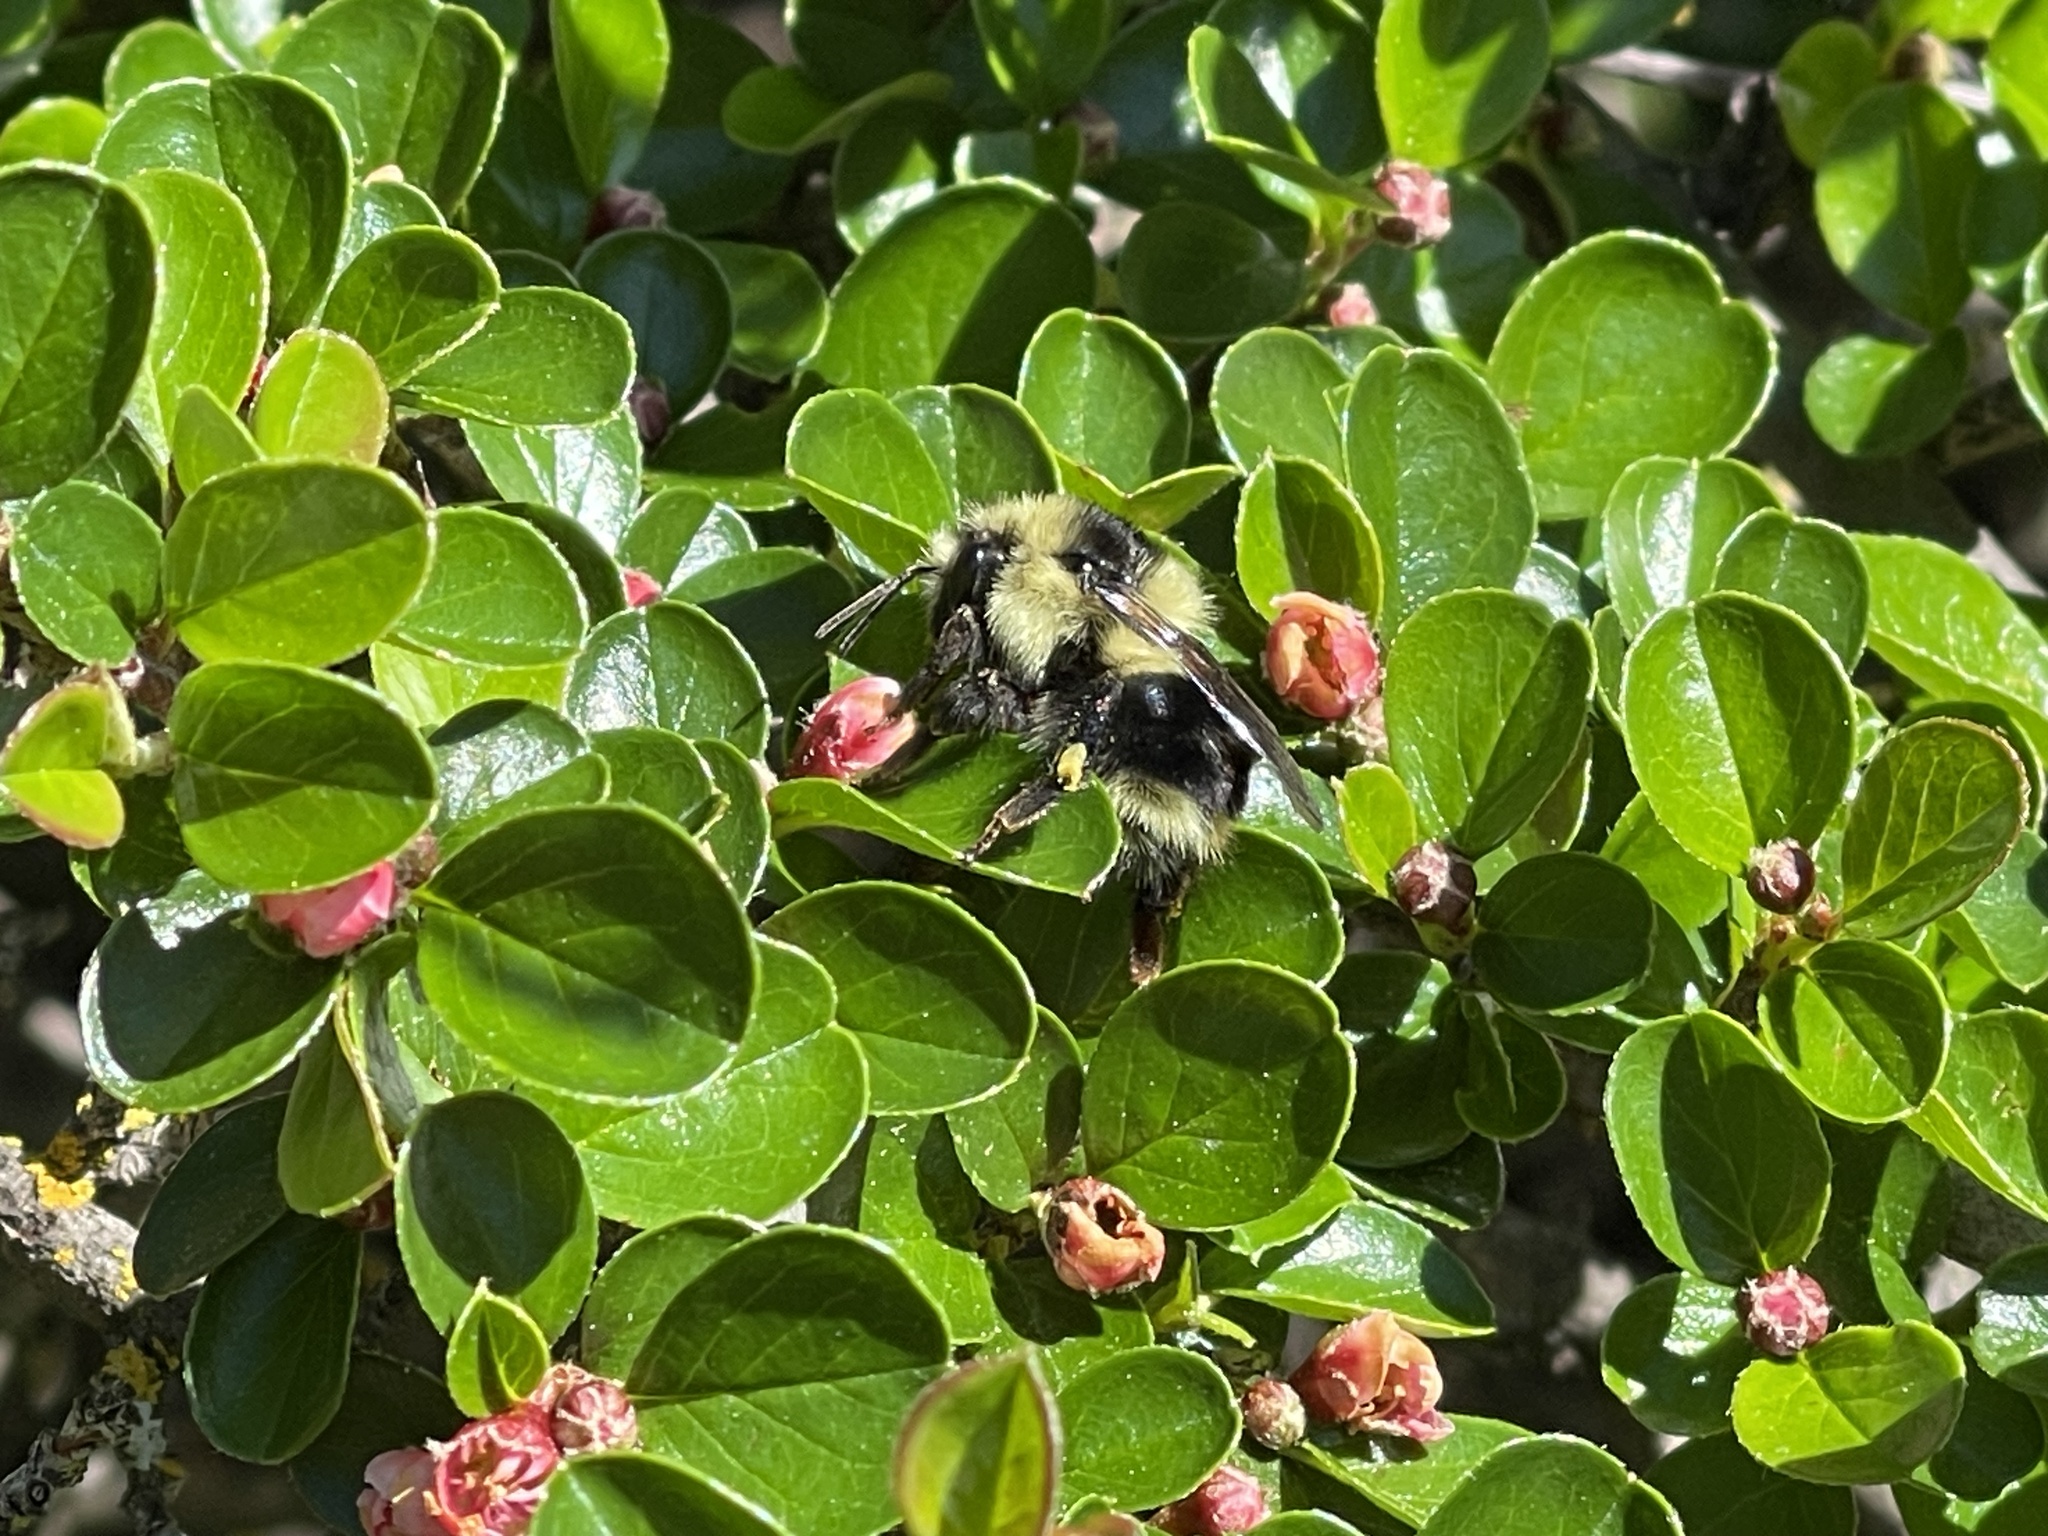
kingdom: Animalia
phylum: Arthropoda
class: Insecta
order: Hymenoptera
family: Apidae
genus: Bombus
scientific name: Bombus melanopygus
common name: Black tail bumble bee
